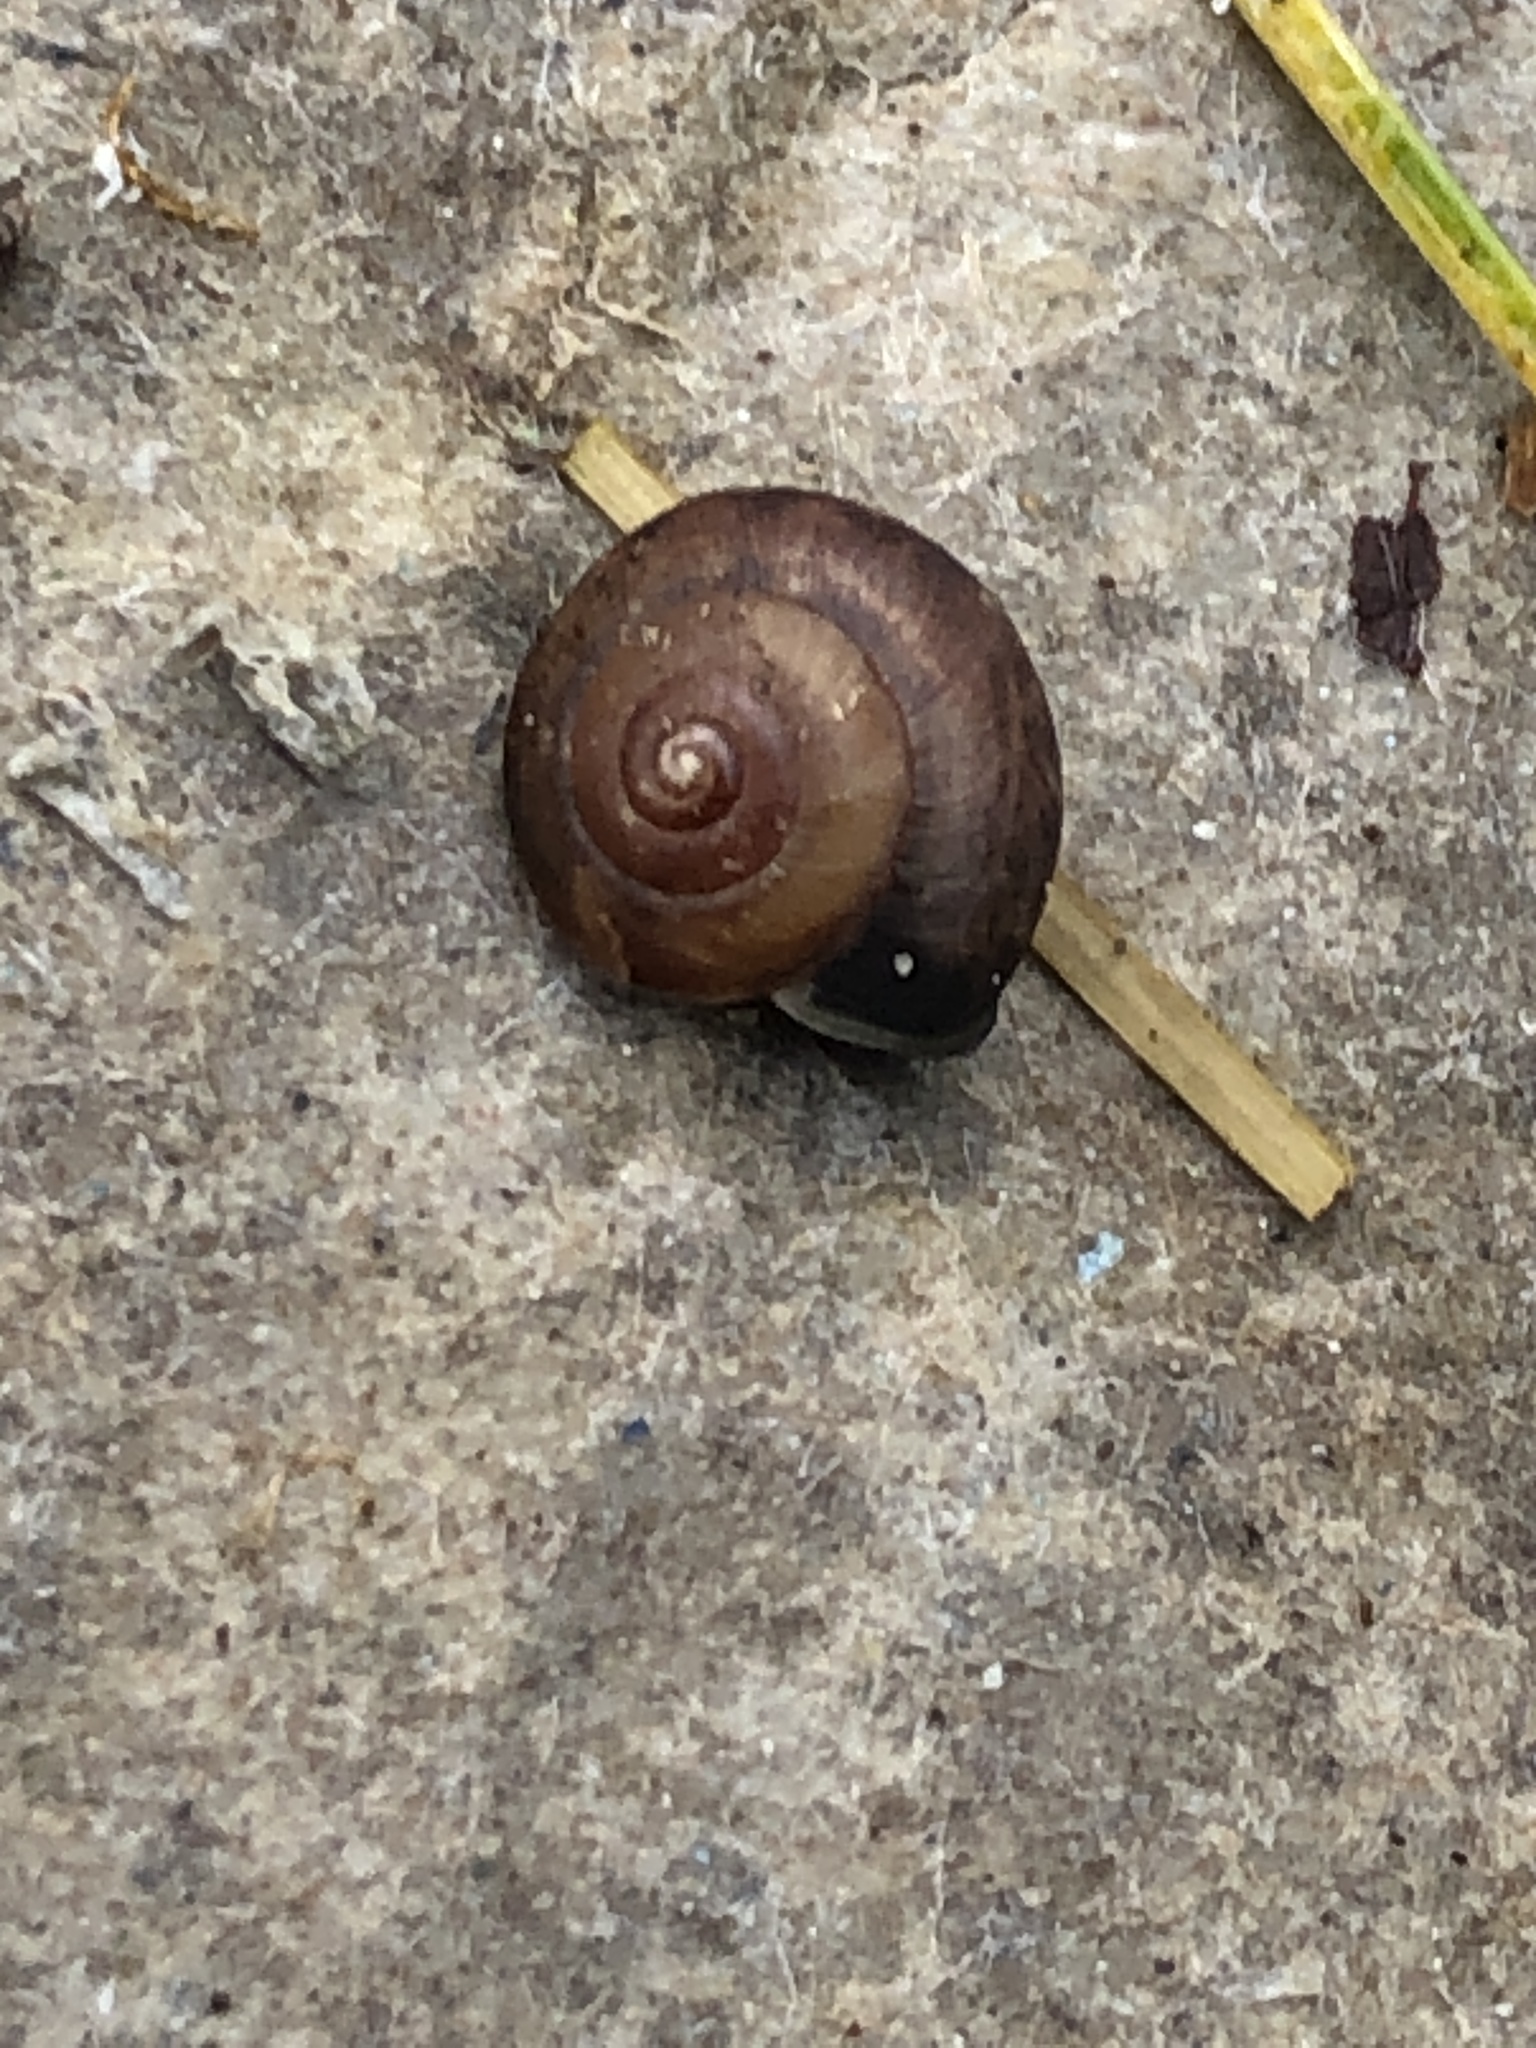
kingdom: Animalia
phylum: Mollusca
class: Gastropoda
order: Stylommatophora
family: Hygromiidae
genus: Hygromia
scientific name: Hygromia cinctella
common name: Girdled snail
